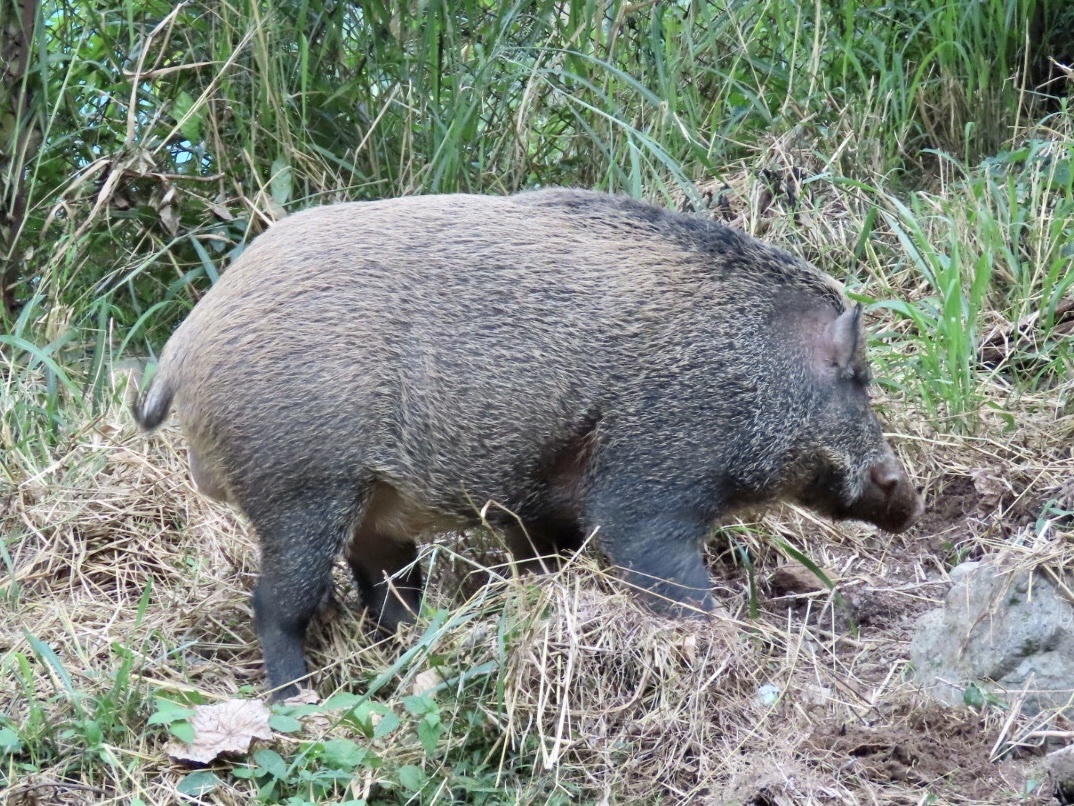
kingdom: Animalia
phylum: Chordata
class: Mammalia
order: Artiodactyla
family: Suidae
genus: Sus
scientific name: Sus scrofa
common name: Wild boar
